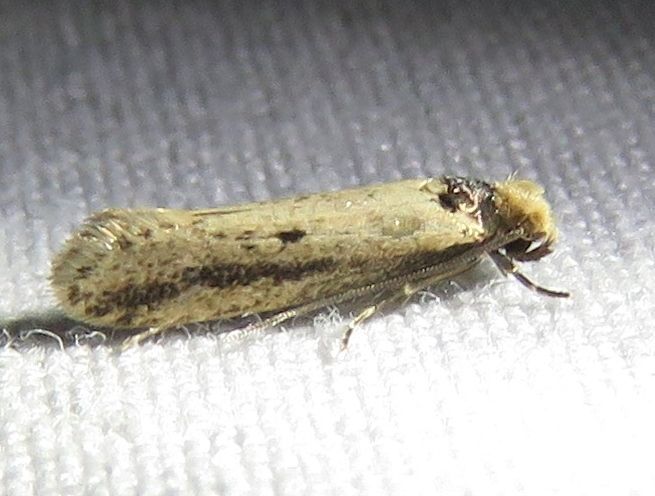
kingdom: Animalia
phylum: Arthropoda
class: Insecta
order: Lepidoptera
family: Tineidae
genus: Tinea
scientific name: Tinea apicimaculella
